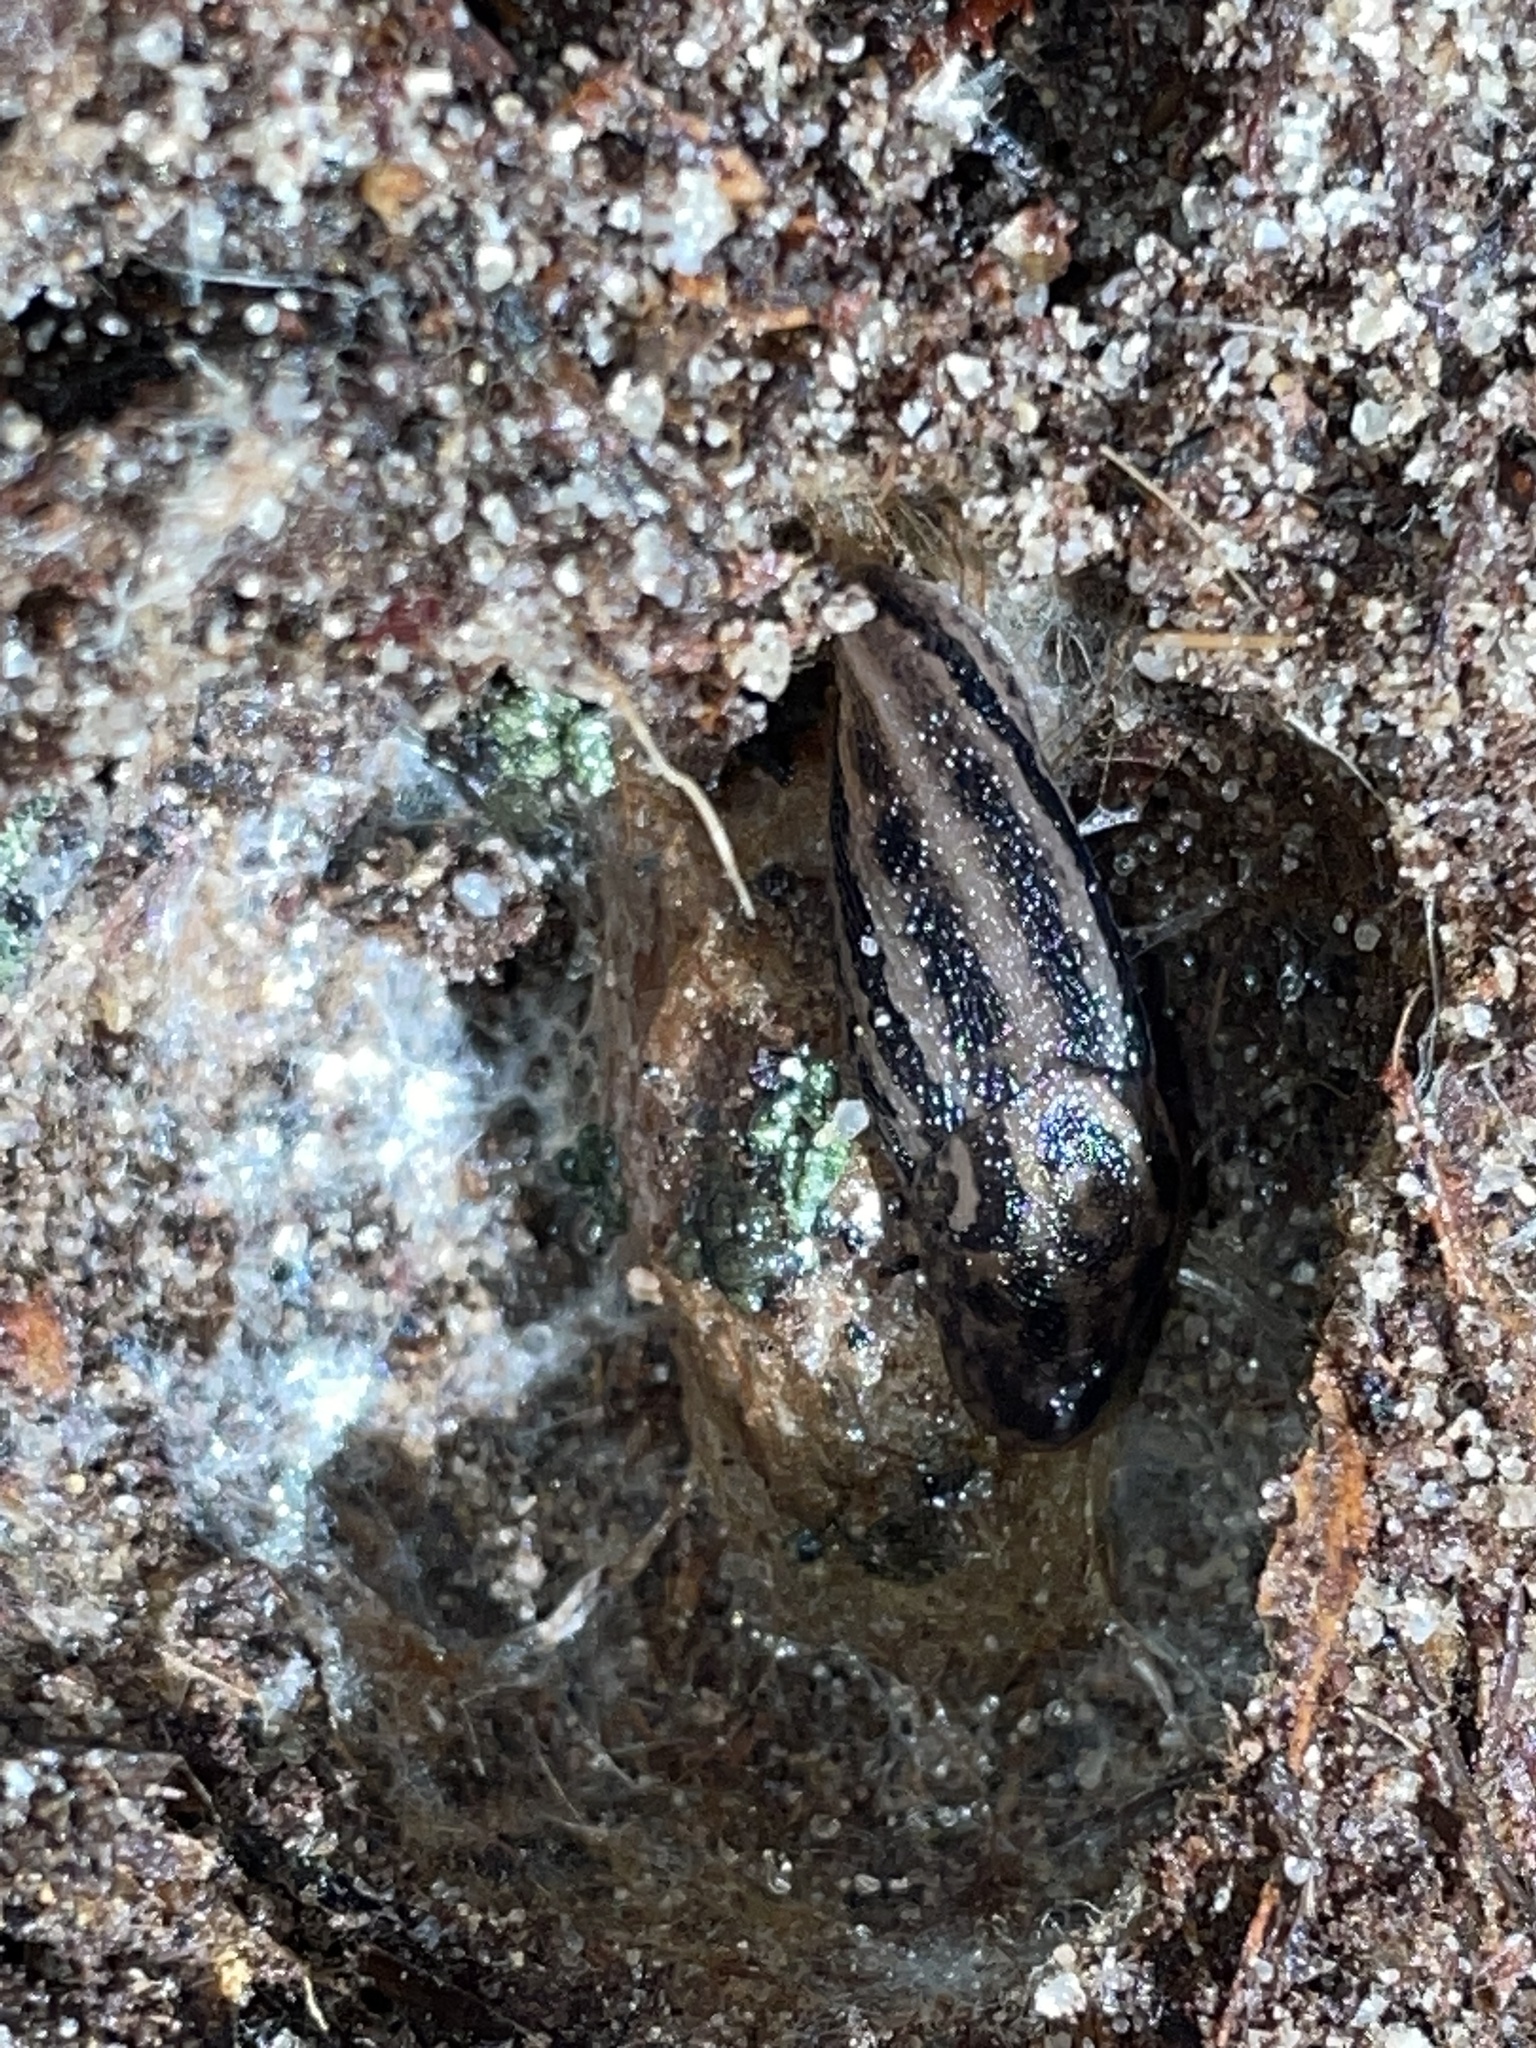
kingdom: Animalia
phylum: Mollusca
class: Gastropoda
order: Stylommatophora
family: Limacidae
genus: Limax
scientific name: Limax maximus
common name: Great grey slug
